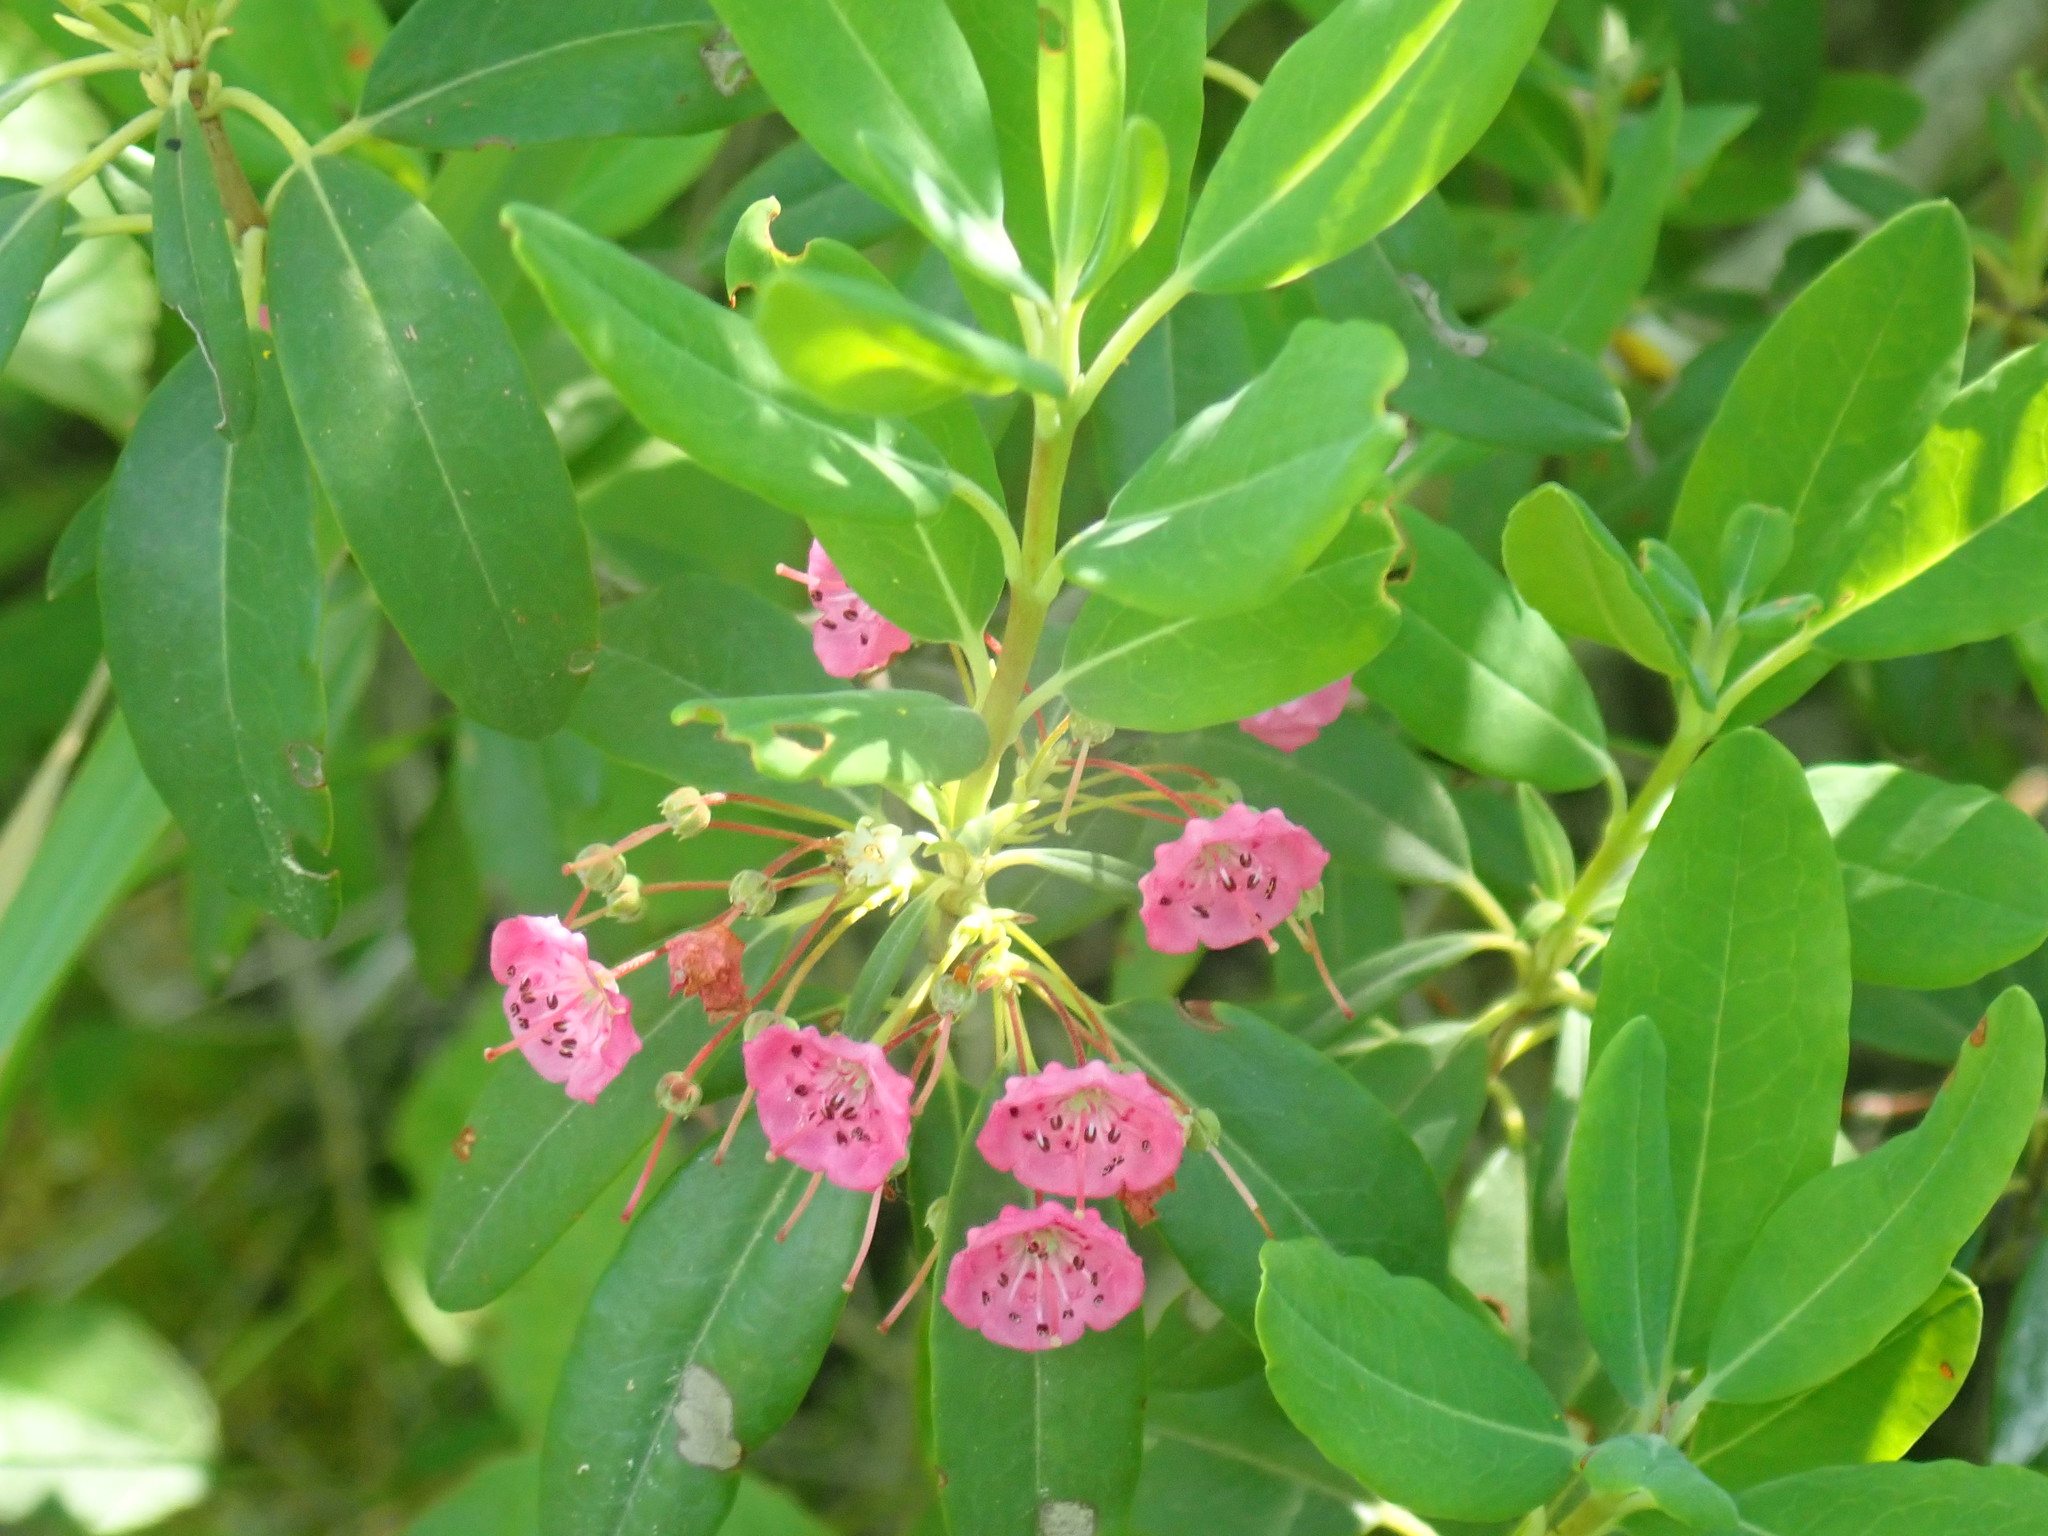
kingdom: Plantae
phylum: Tracheophyta
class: Magnoliopsida
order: Ericales
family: Ericaceae
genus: Kalmia
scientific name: Kalmia angustifolia
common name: Sheep-laurel
